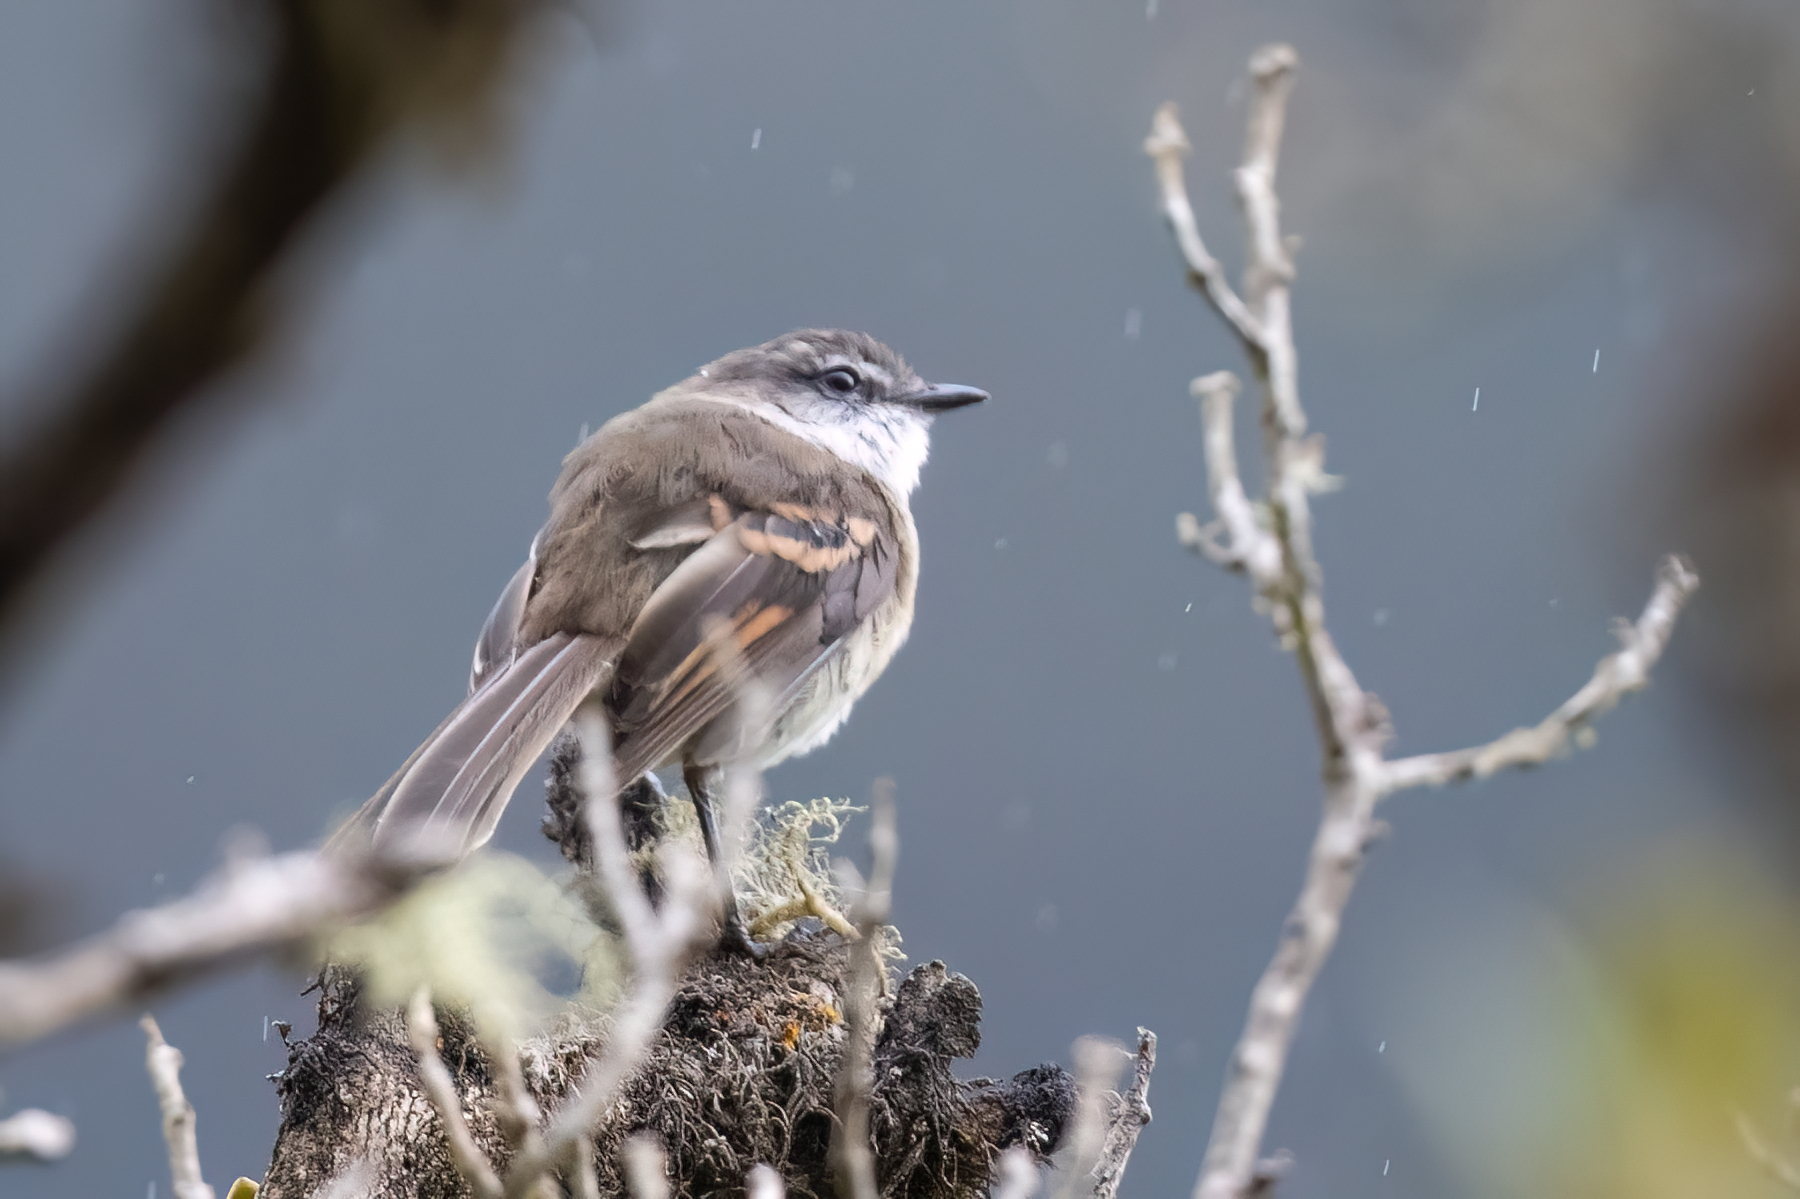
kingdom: Animalia
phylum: Chordata
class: Aves
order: Passeriformes
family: Tyrannidae
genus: Mecocerculus
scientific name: Mecocerculus leucophrys
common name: White-throated tyrannulet
